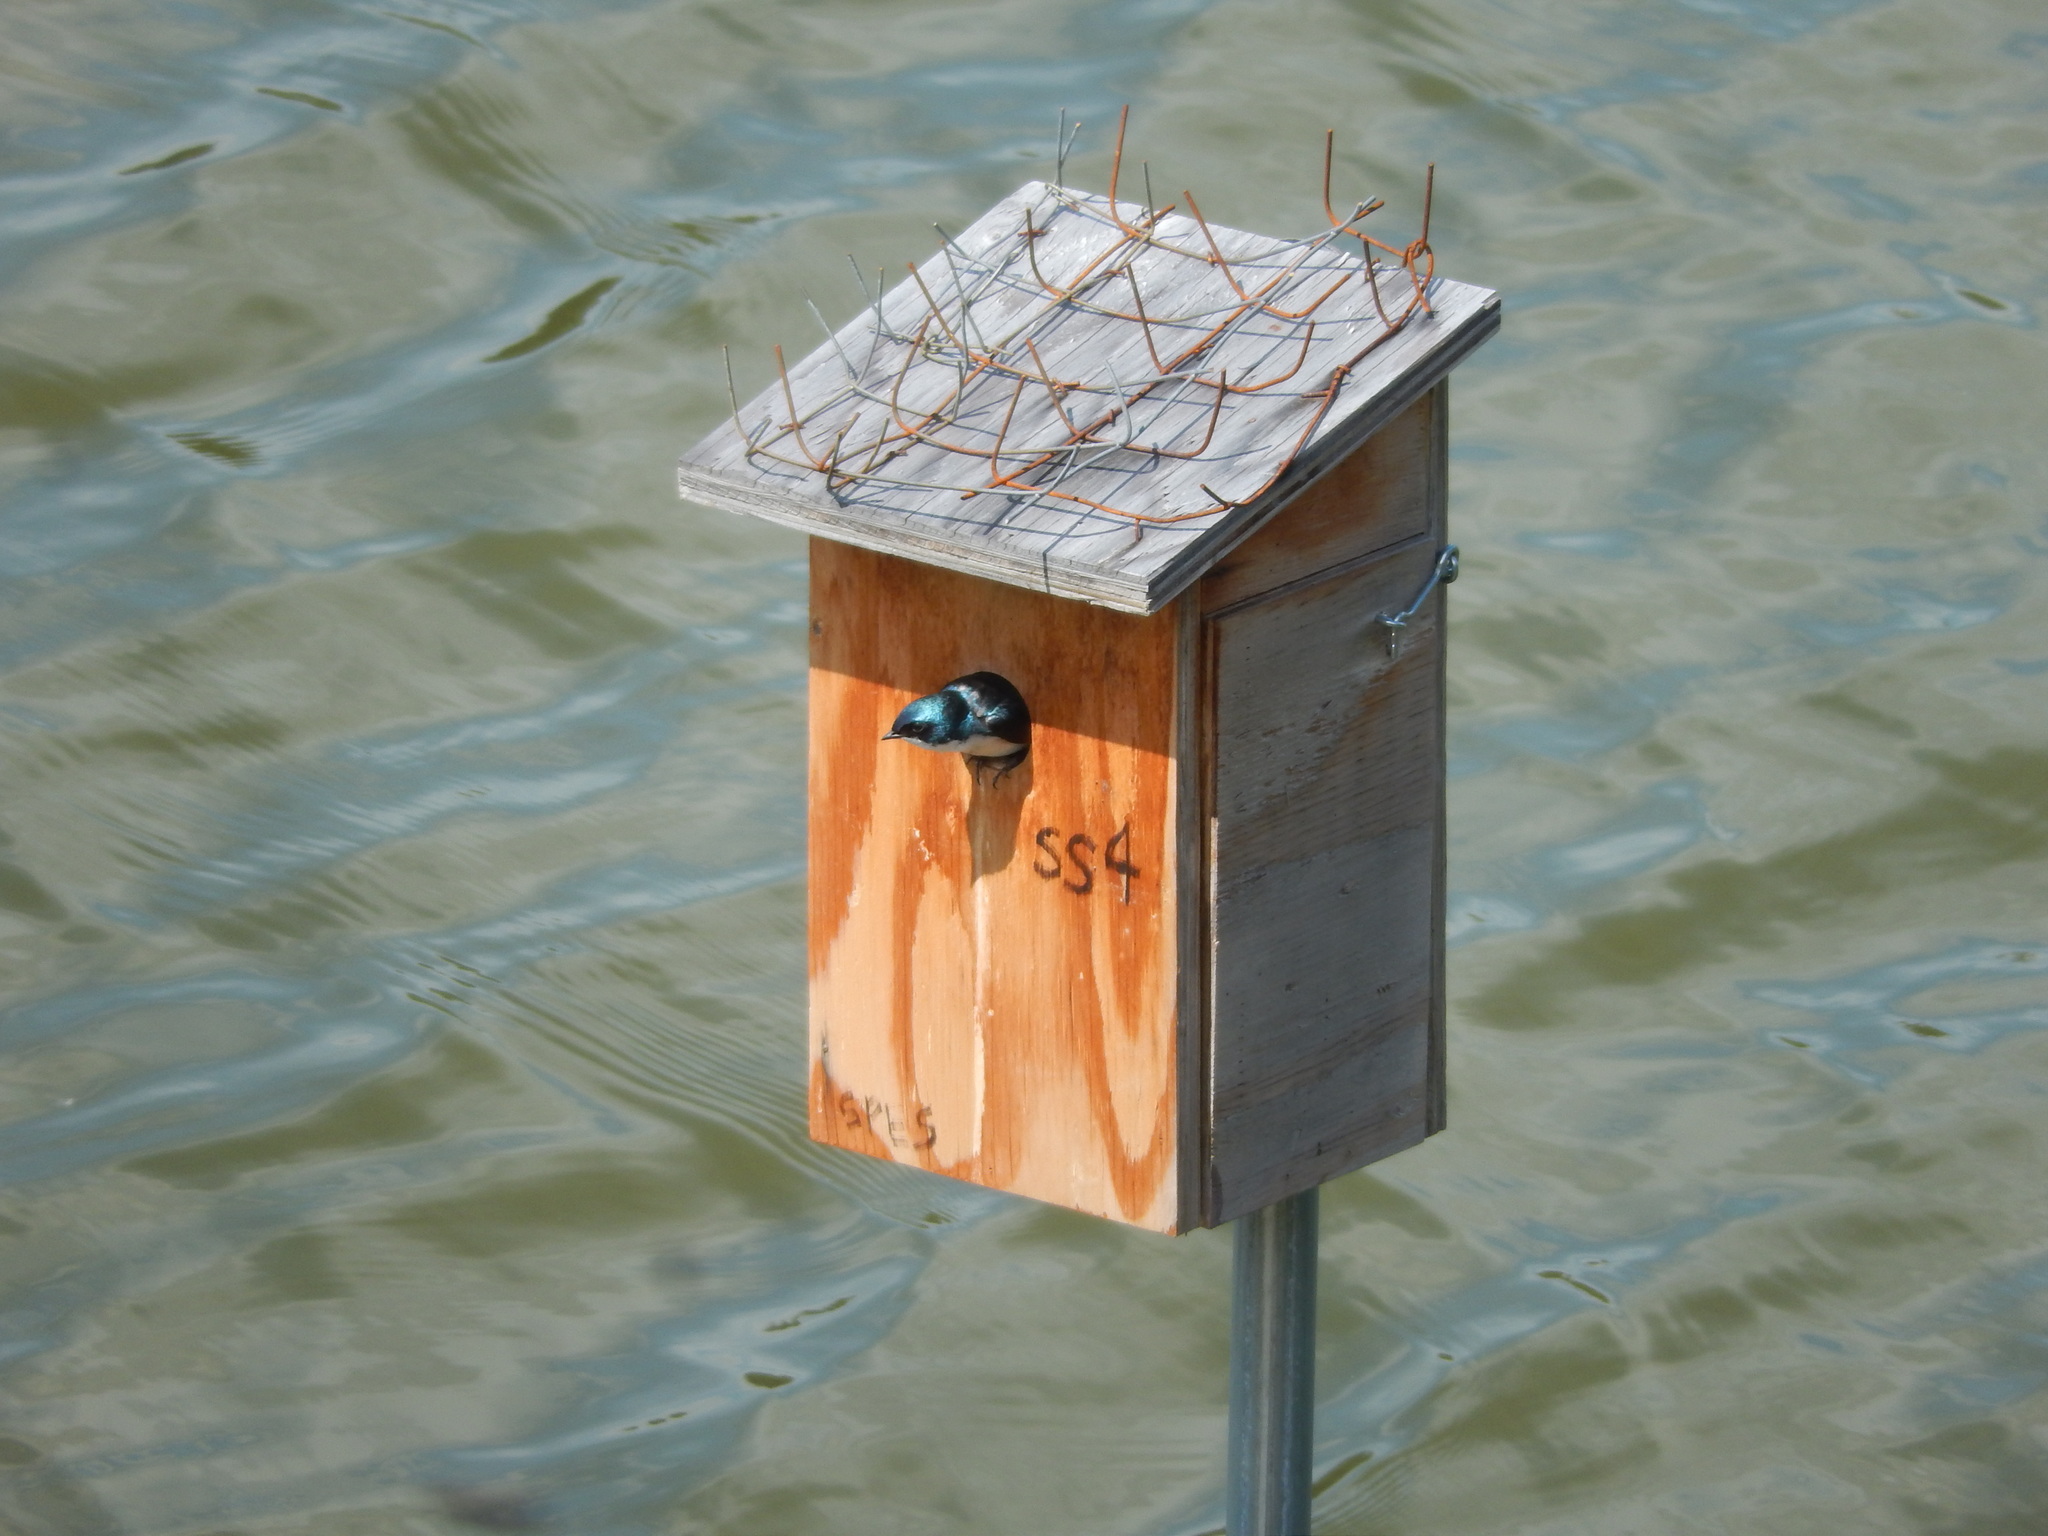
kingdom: Animalia
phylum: Chordata
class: Aves
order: Passeriformes
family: Hirundinidae
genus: Tachycineta
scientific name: Tachycineta bicolor
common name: Tree swallow
